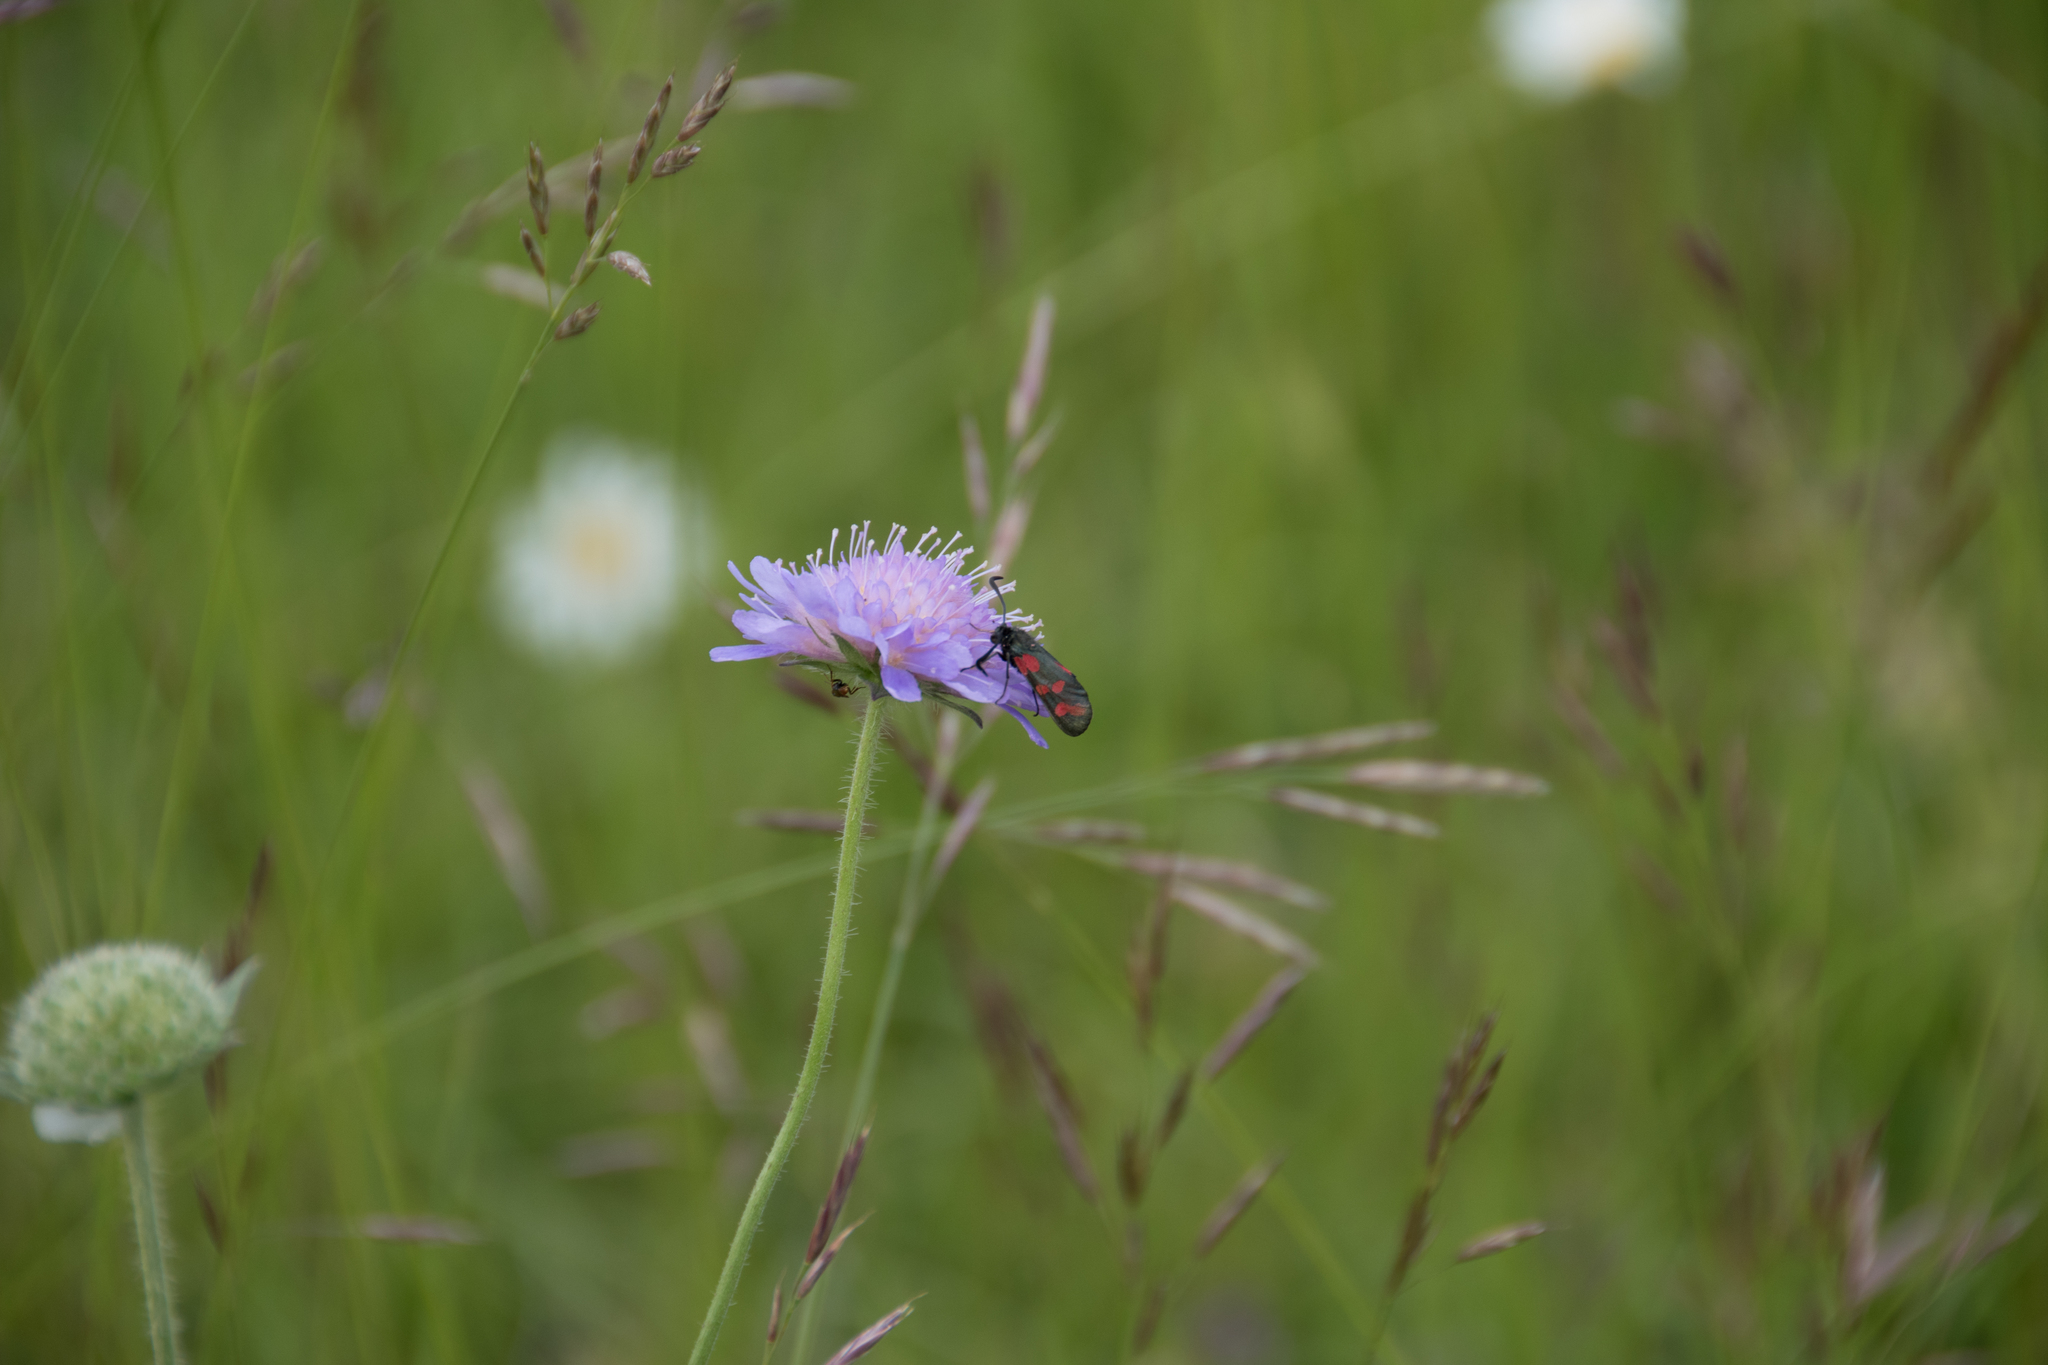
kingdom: Animalia
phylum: Arthropoda
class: Insecta
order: Lepidoptera
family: Zygaenidae
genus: Zygaena
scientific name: Zygaena filipendulae
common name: Six-spot burnet
